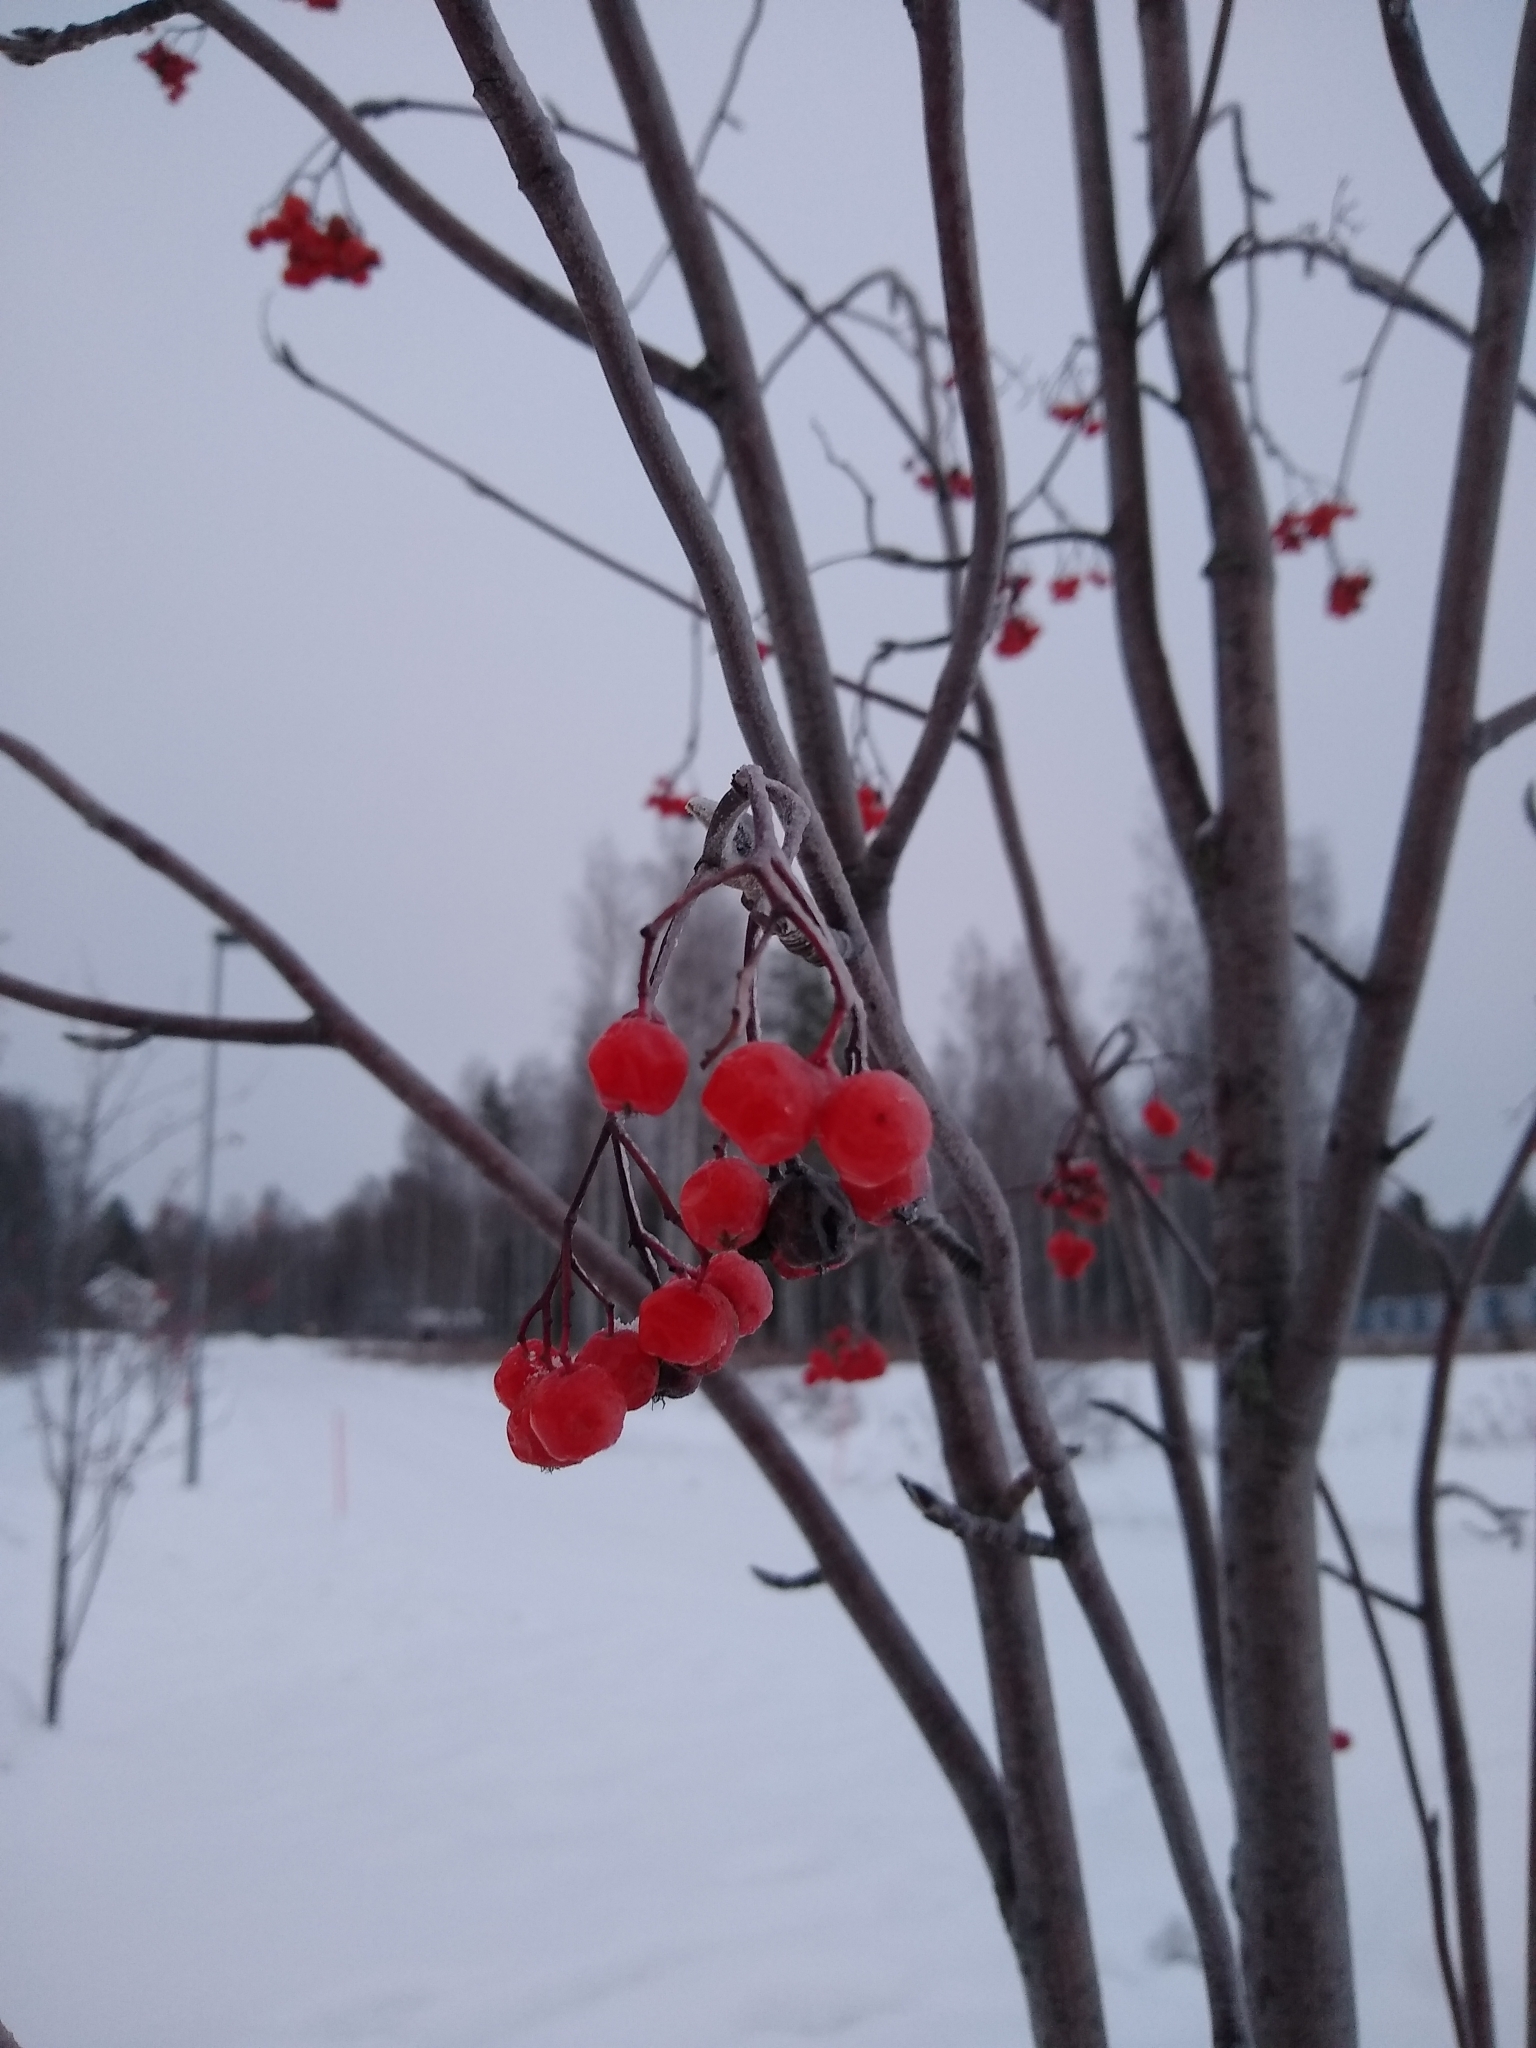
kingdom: Plantae
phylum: Tracheophyta
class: Magnoliopsida
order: Rosales
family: Rosaceae
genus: Sorbus
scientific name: Sorbus aucuparia
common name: Rowan
